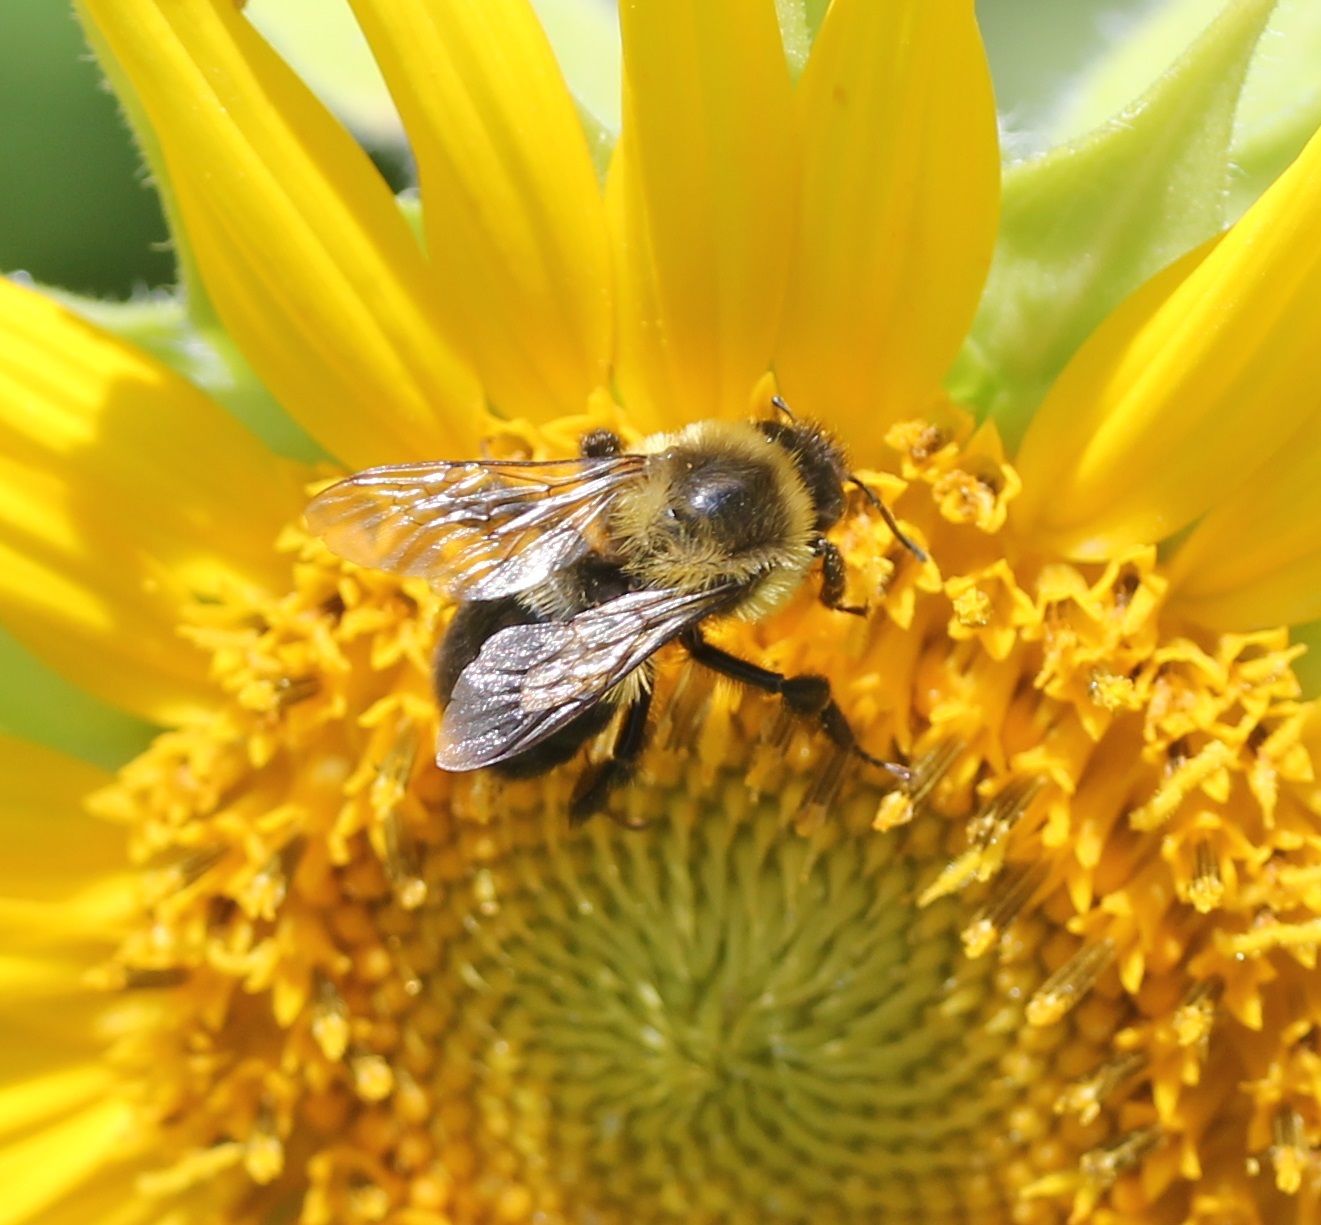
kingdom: Animalia
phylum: Arthropoda
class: Insecta
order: Hymenoptera
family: Apidae
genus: Bombus
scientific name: Bombus impatiens
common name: Common eastern bumble bee
